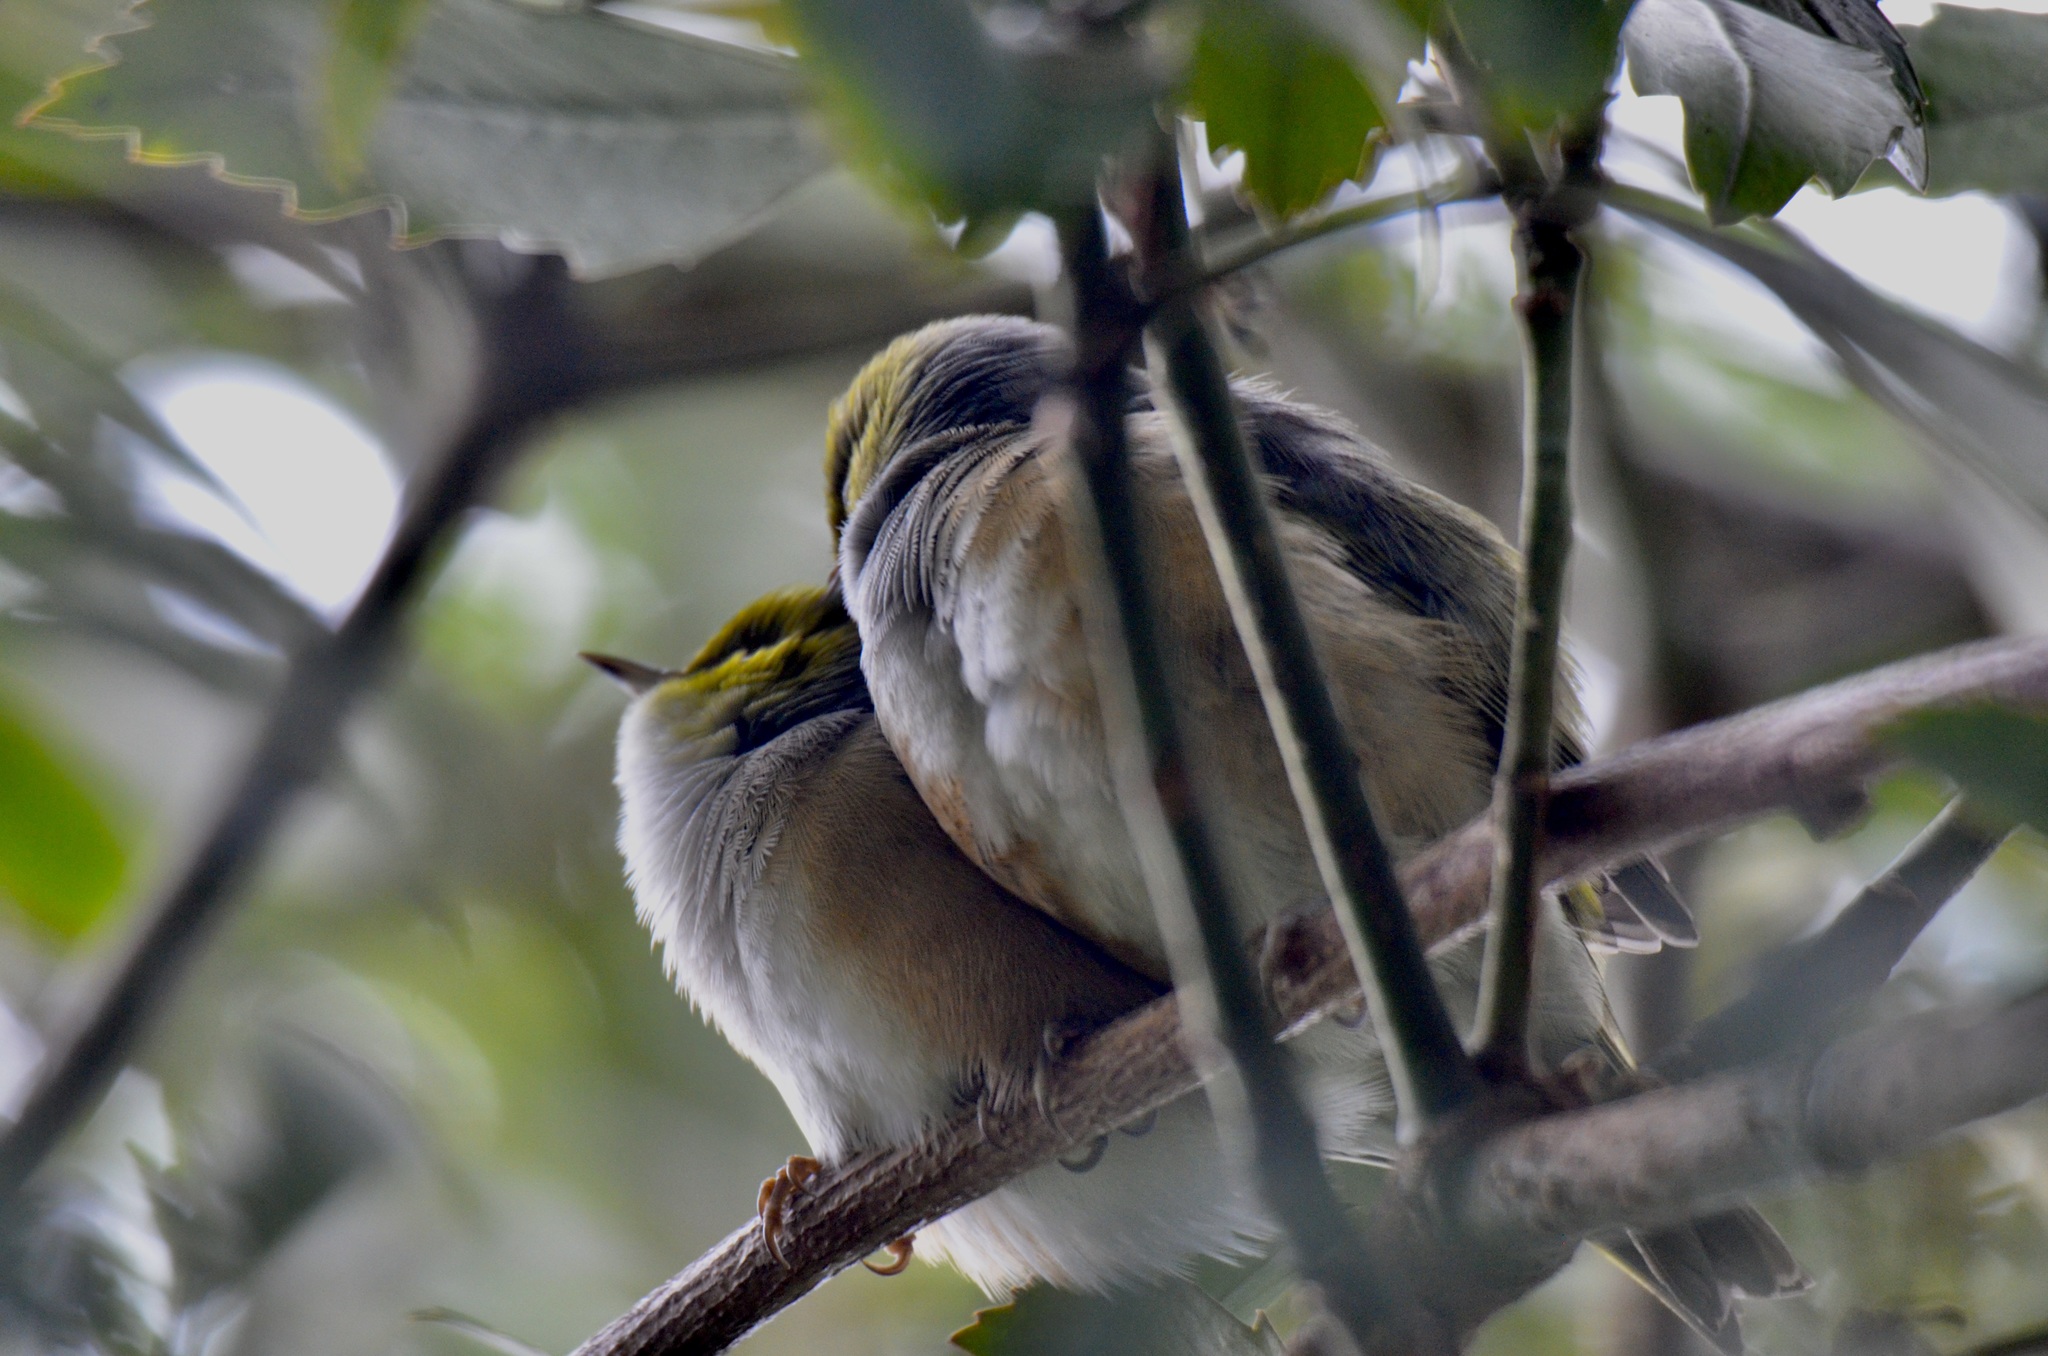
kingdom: Animalia
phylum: Chordata
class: Aves
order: Passeriformes
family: Zosteropidae
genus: Zosterops
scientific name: Zosterops lateralis
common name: Silvereye
